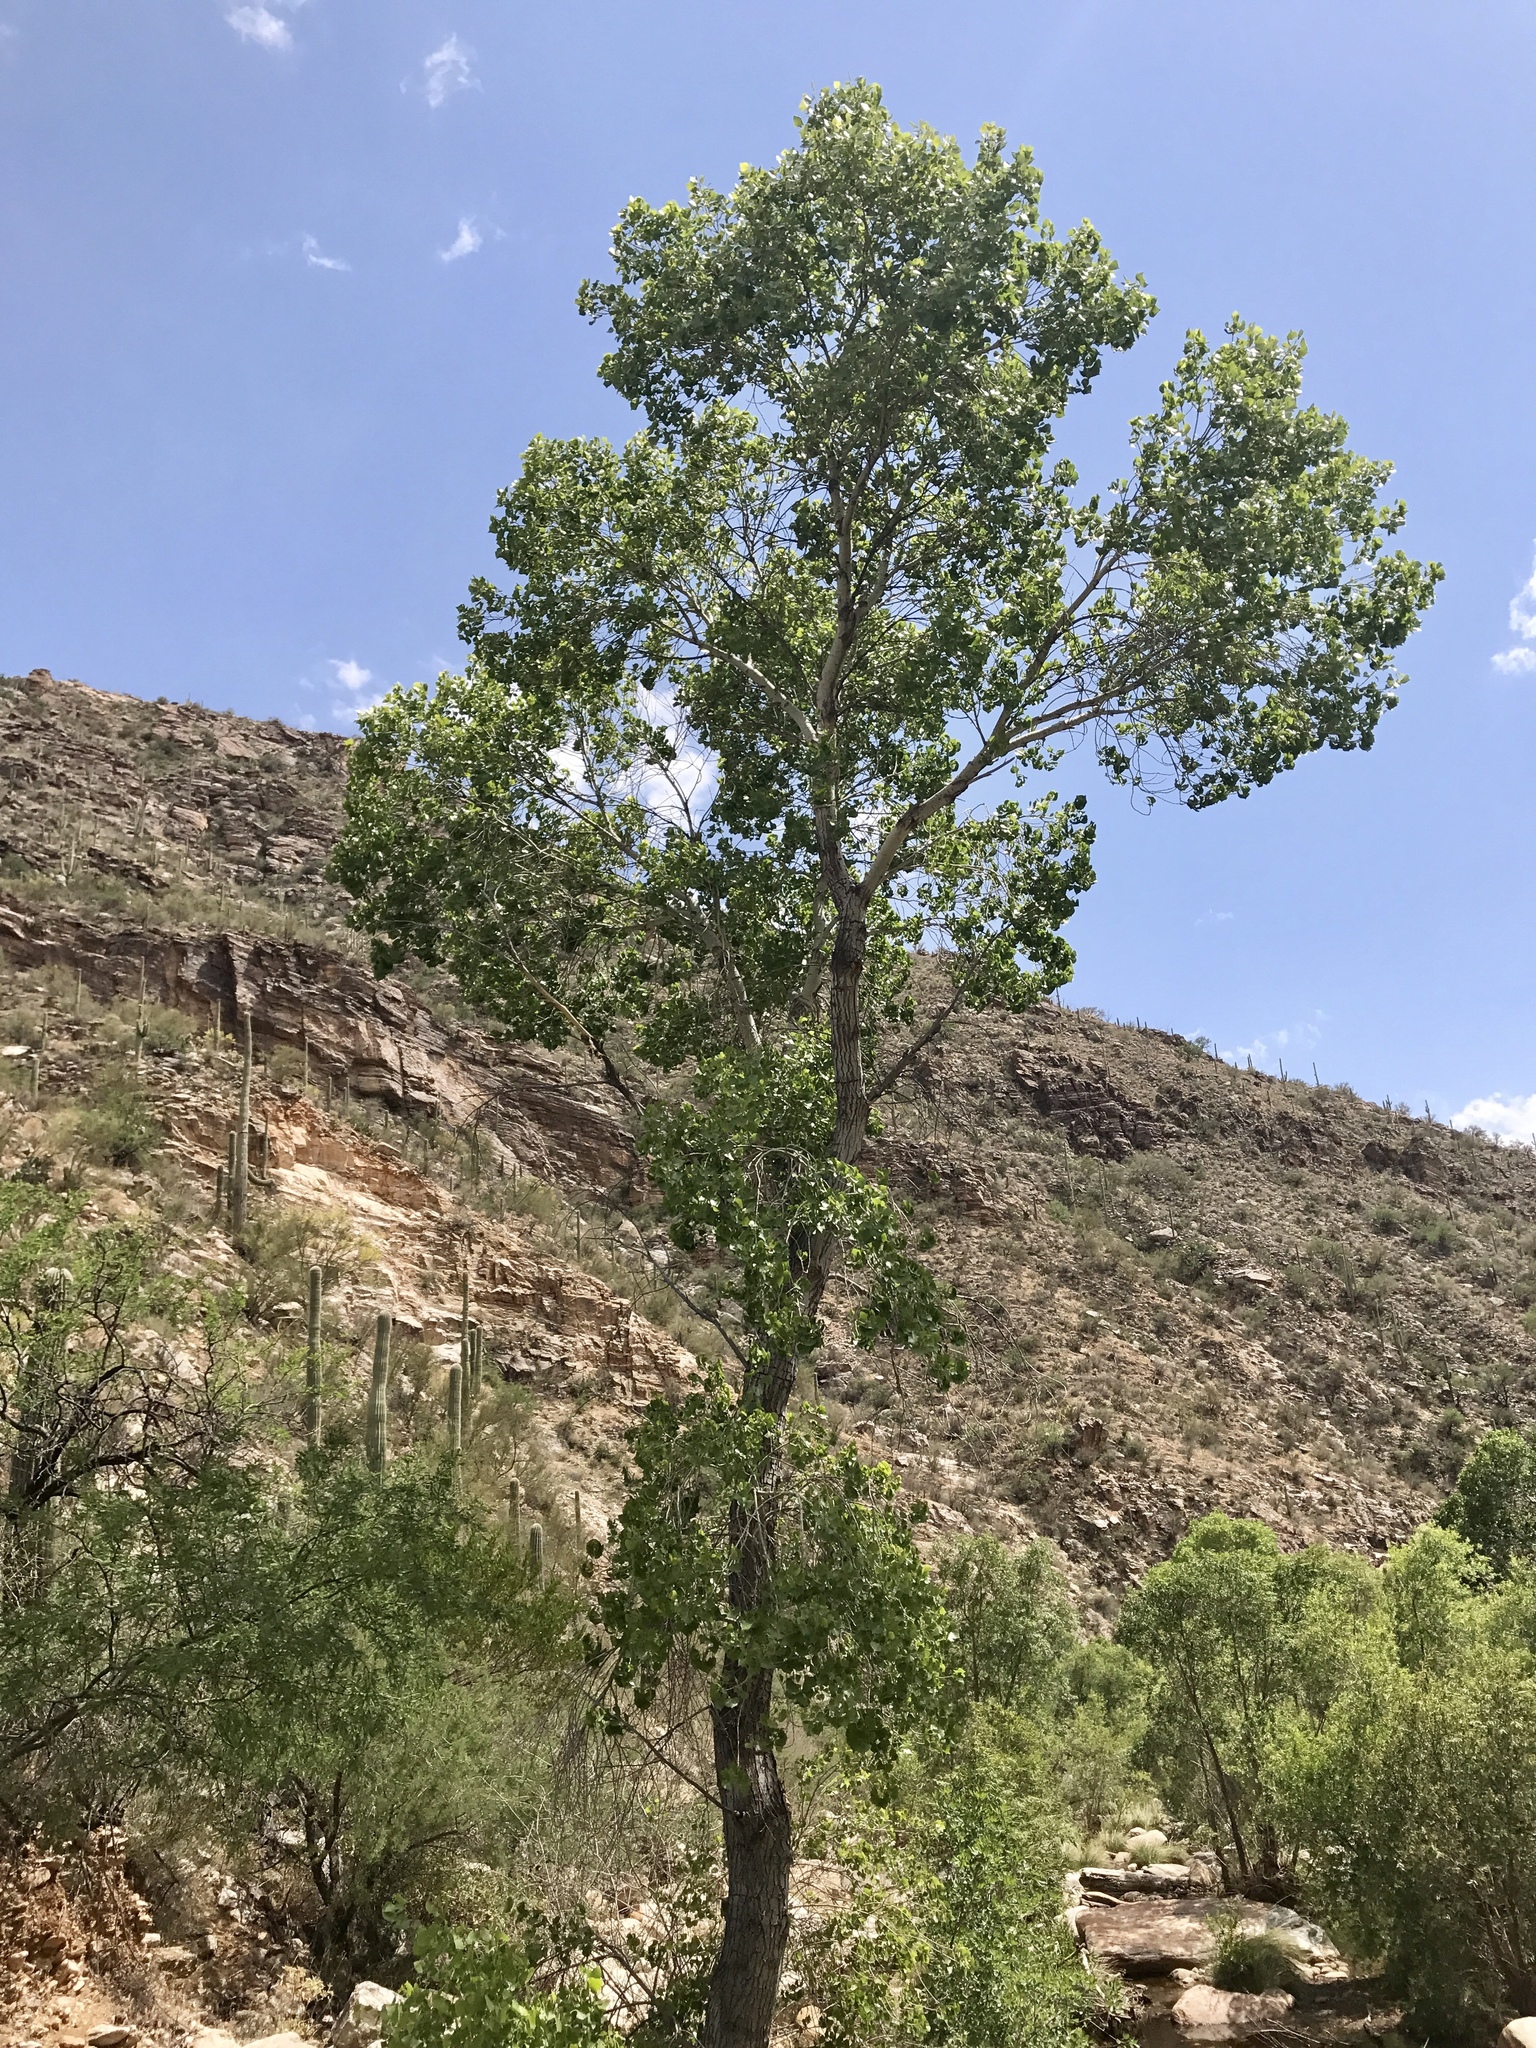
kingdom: Plantae
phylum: Tracheophyta
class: Magnoliopsida
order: Malpighiales
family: Salicaceae
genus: Populus
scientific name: Populus fremontii
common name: Fremont's cottonwood
